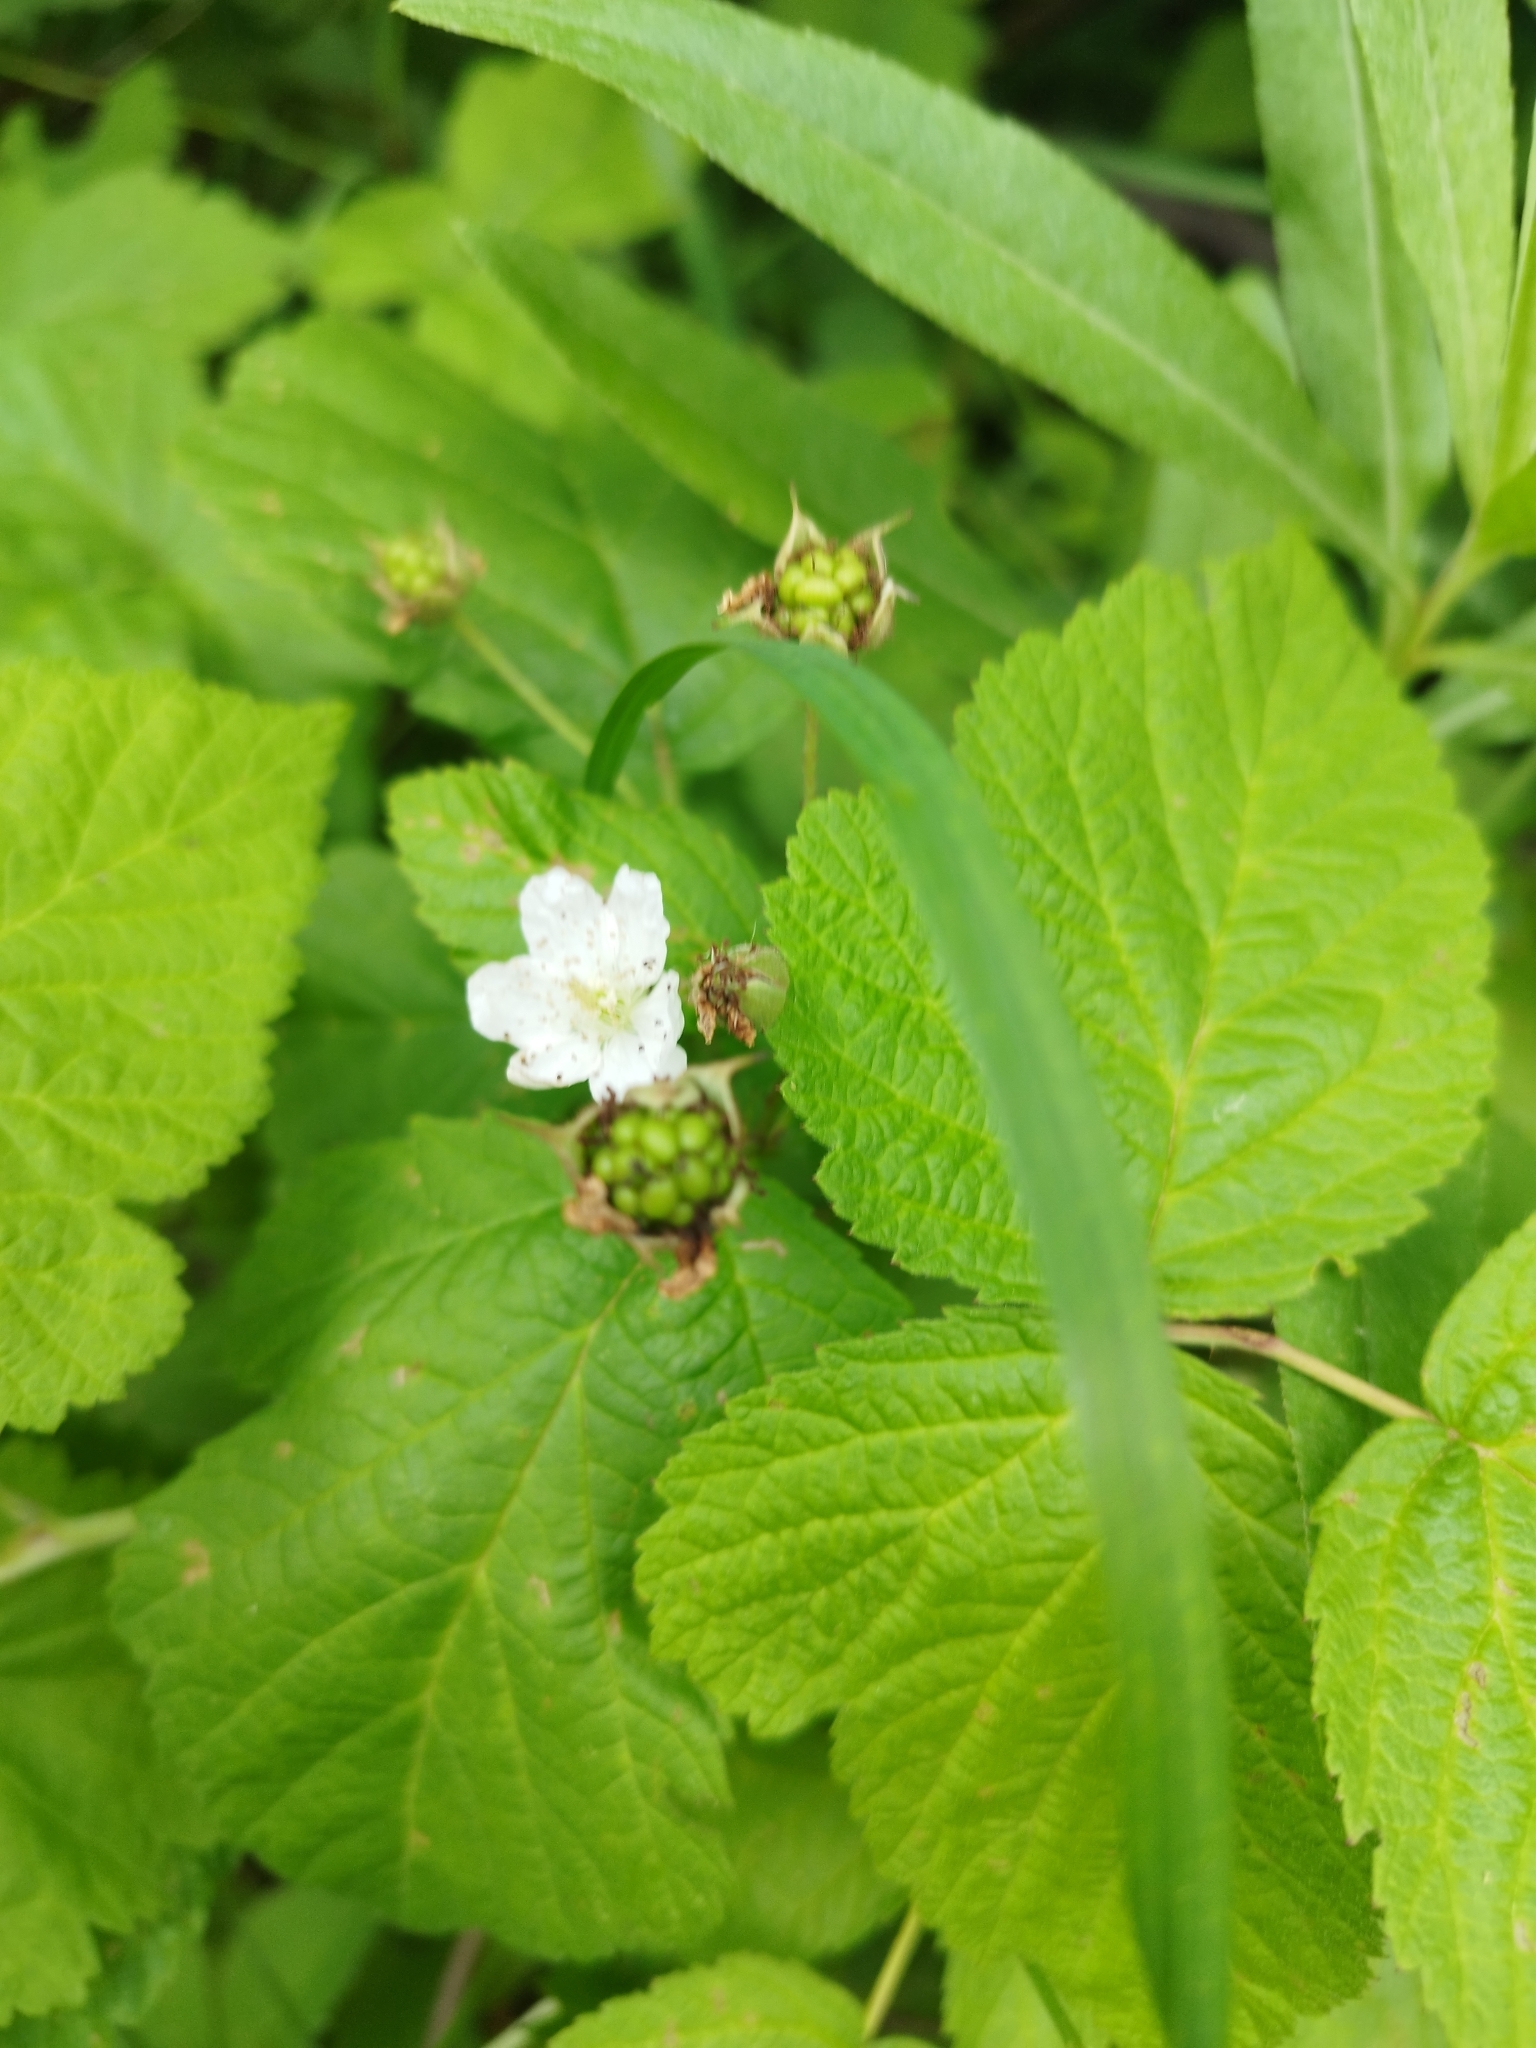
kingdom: Plantae
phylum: Tracheophyta
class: Magnoliopsida
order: Rosales
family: Rosaceae
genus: Rubus
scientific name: Rubus caesius
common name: Dewberry
